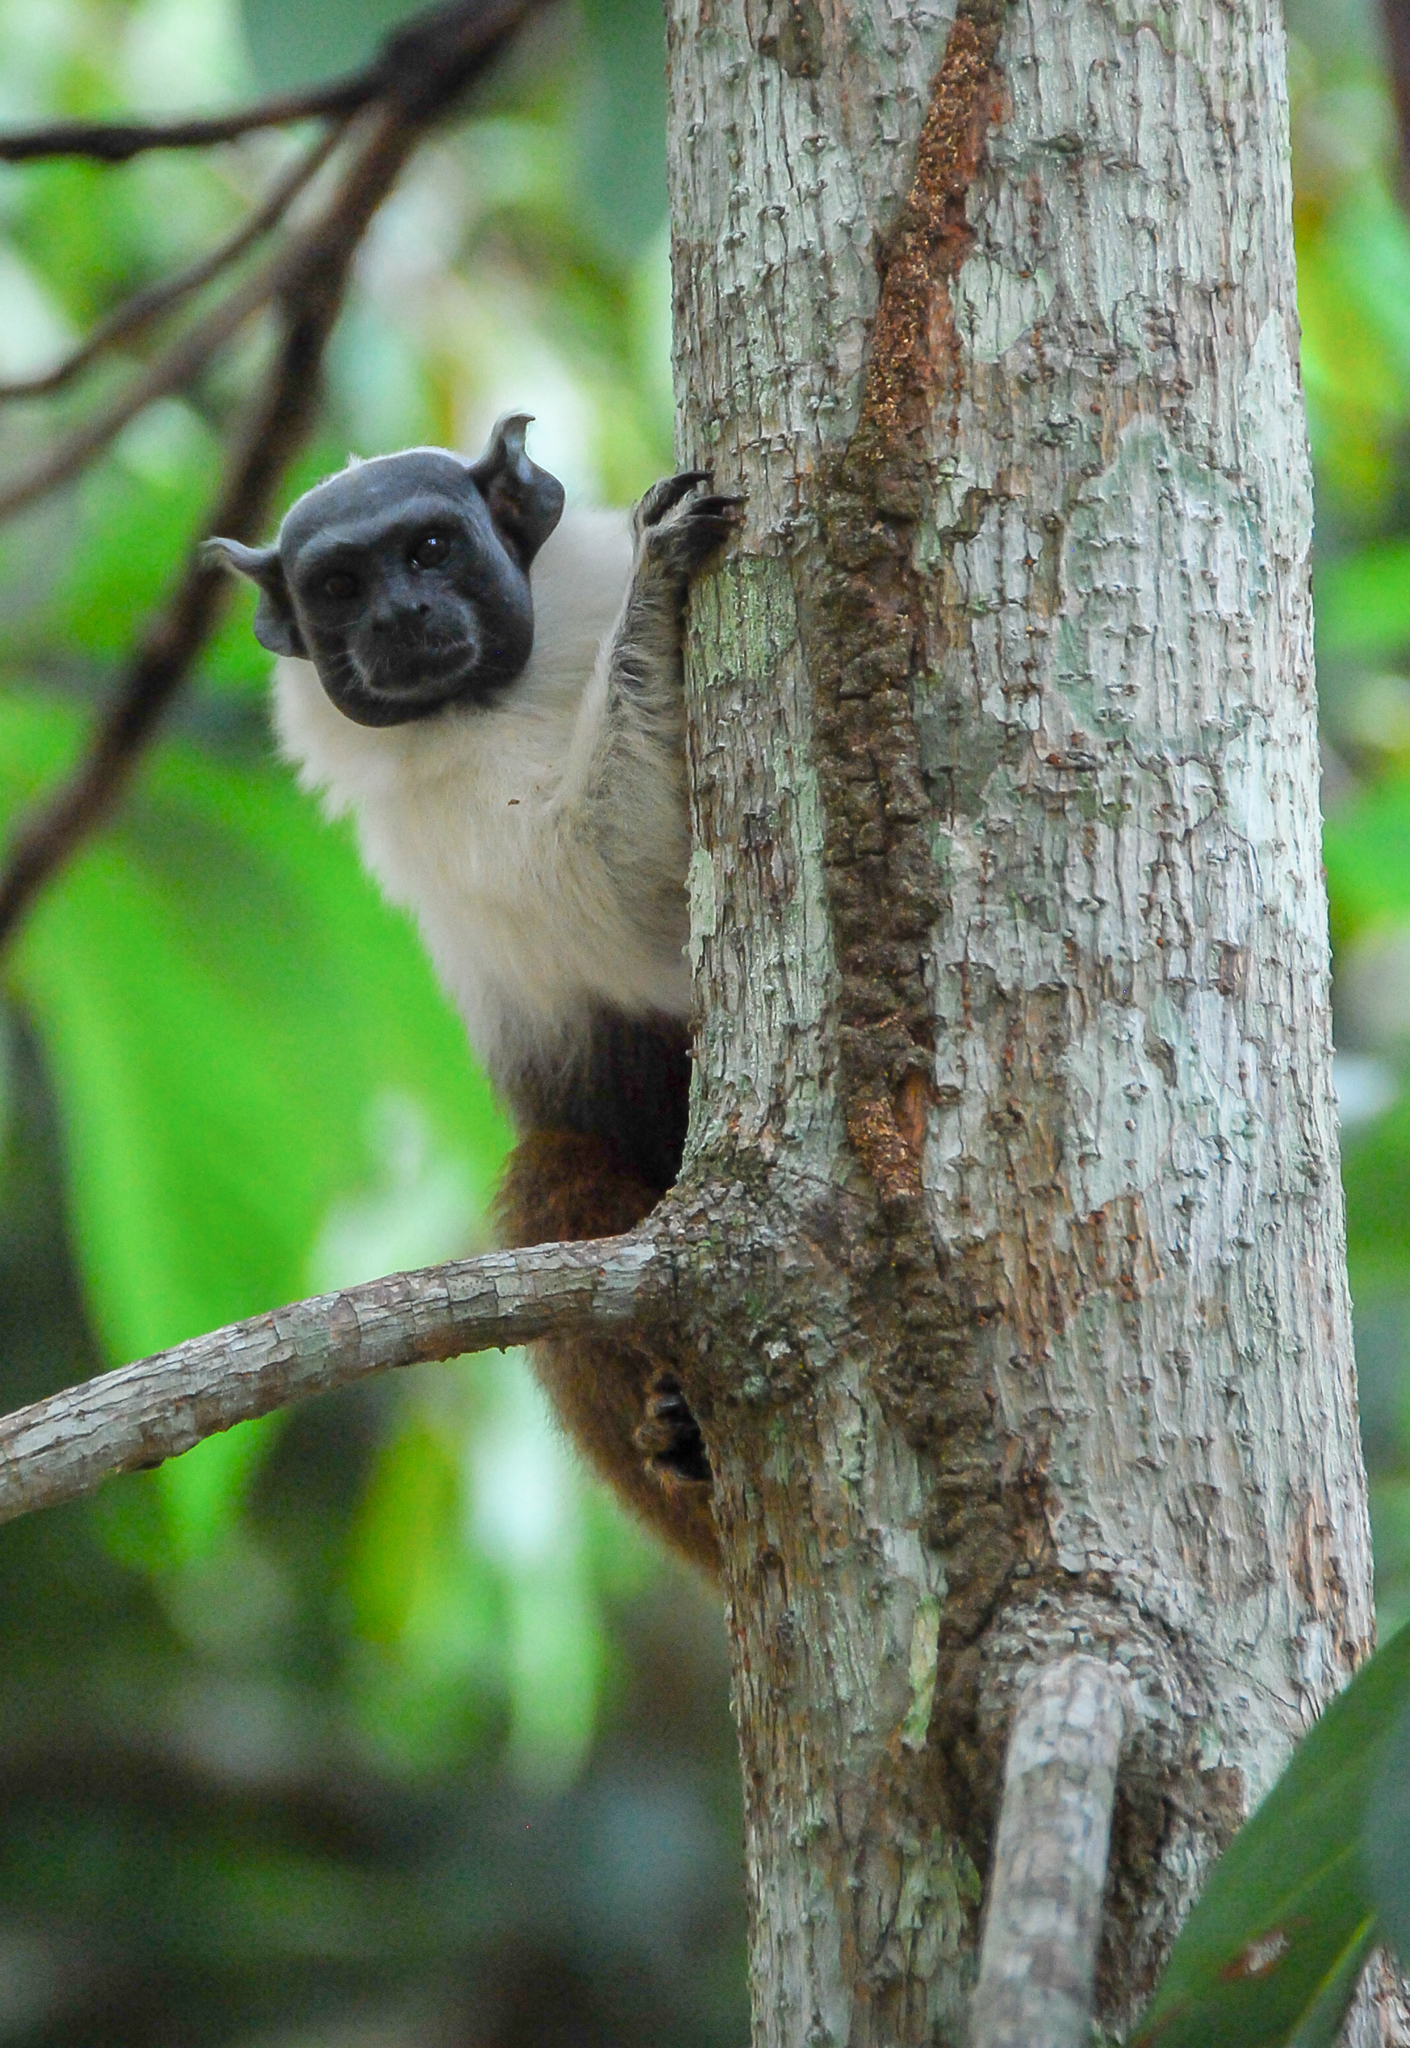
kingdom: Animalia
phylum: Chordata
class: Mammalia
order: Primates
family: Callitrichidae
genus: Saguinus
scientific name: Saguinus bicolor
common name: Pied tamarin
